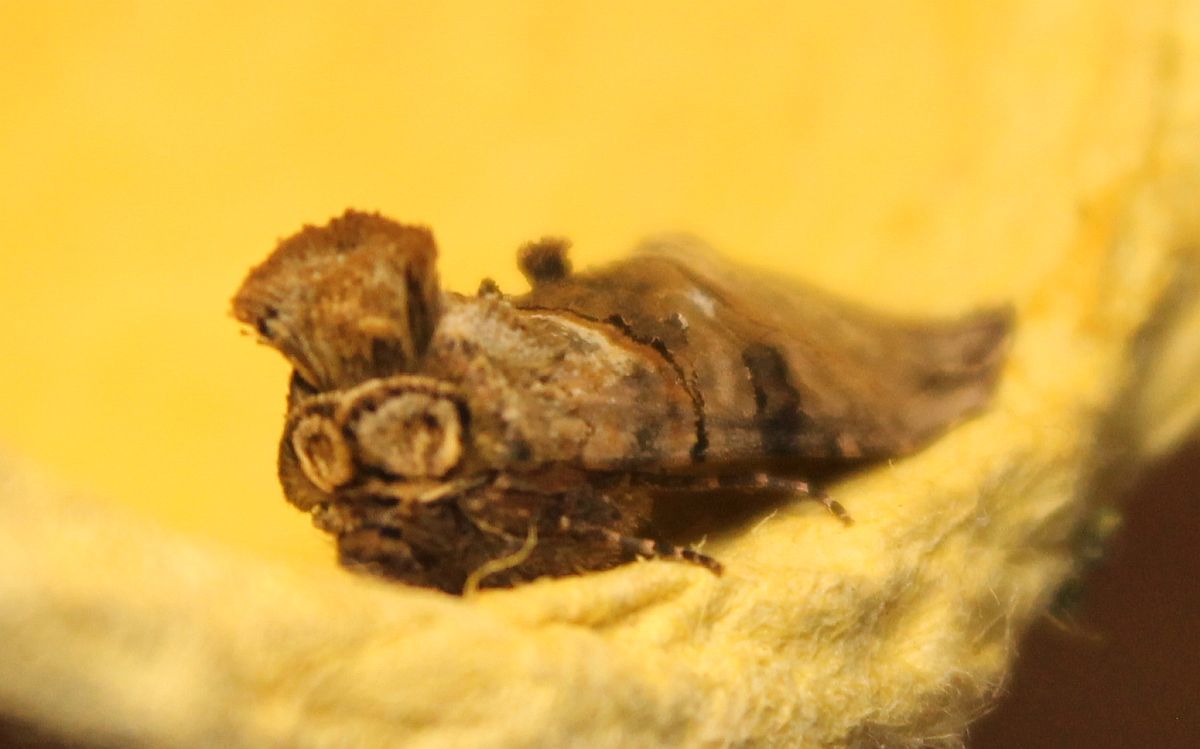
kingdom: Animalia
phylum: Arthropoda
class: Insecta
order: Lepidoptera
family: Noctuidae
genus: Abrostola
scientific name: Abrostola tripartita
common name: Spectacle
